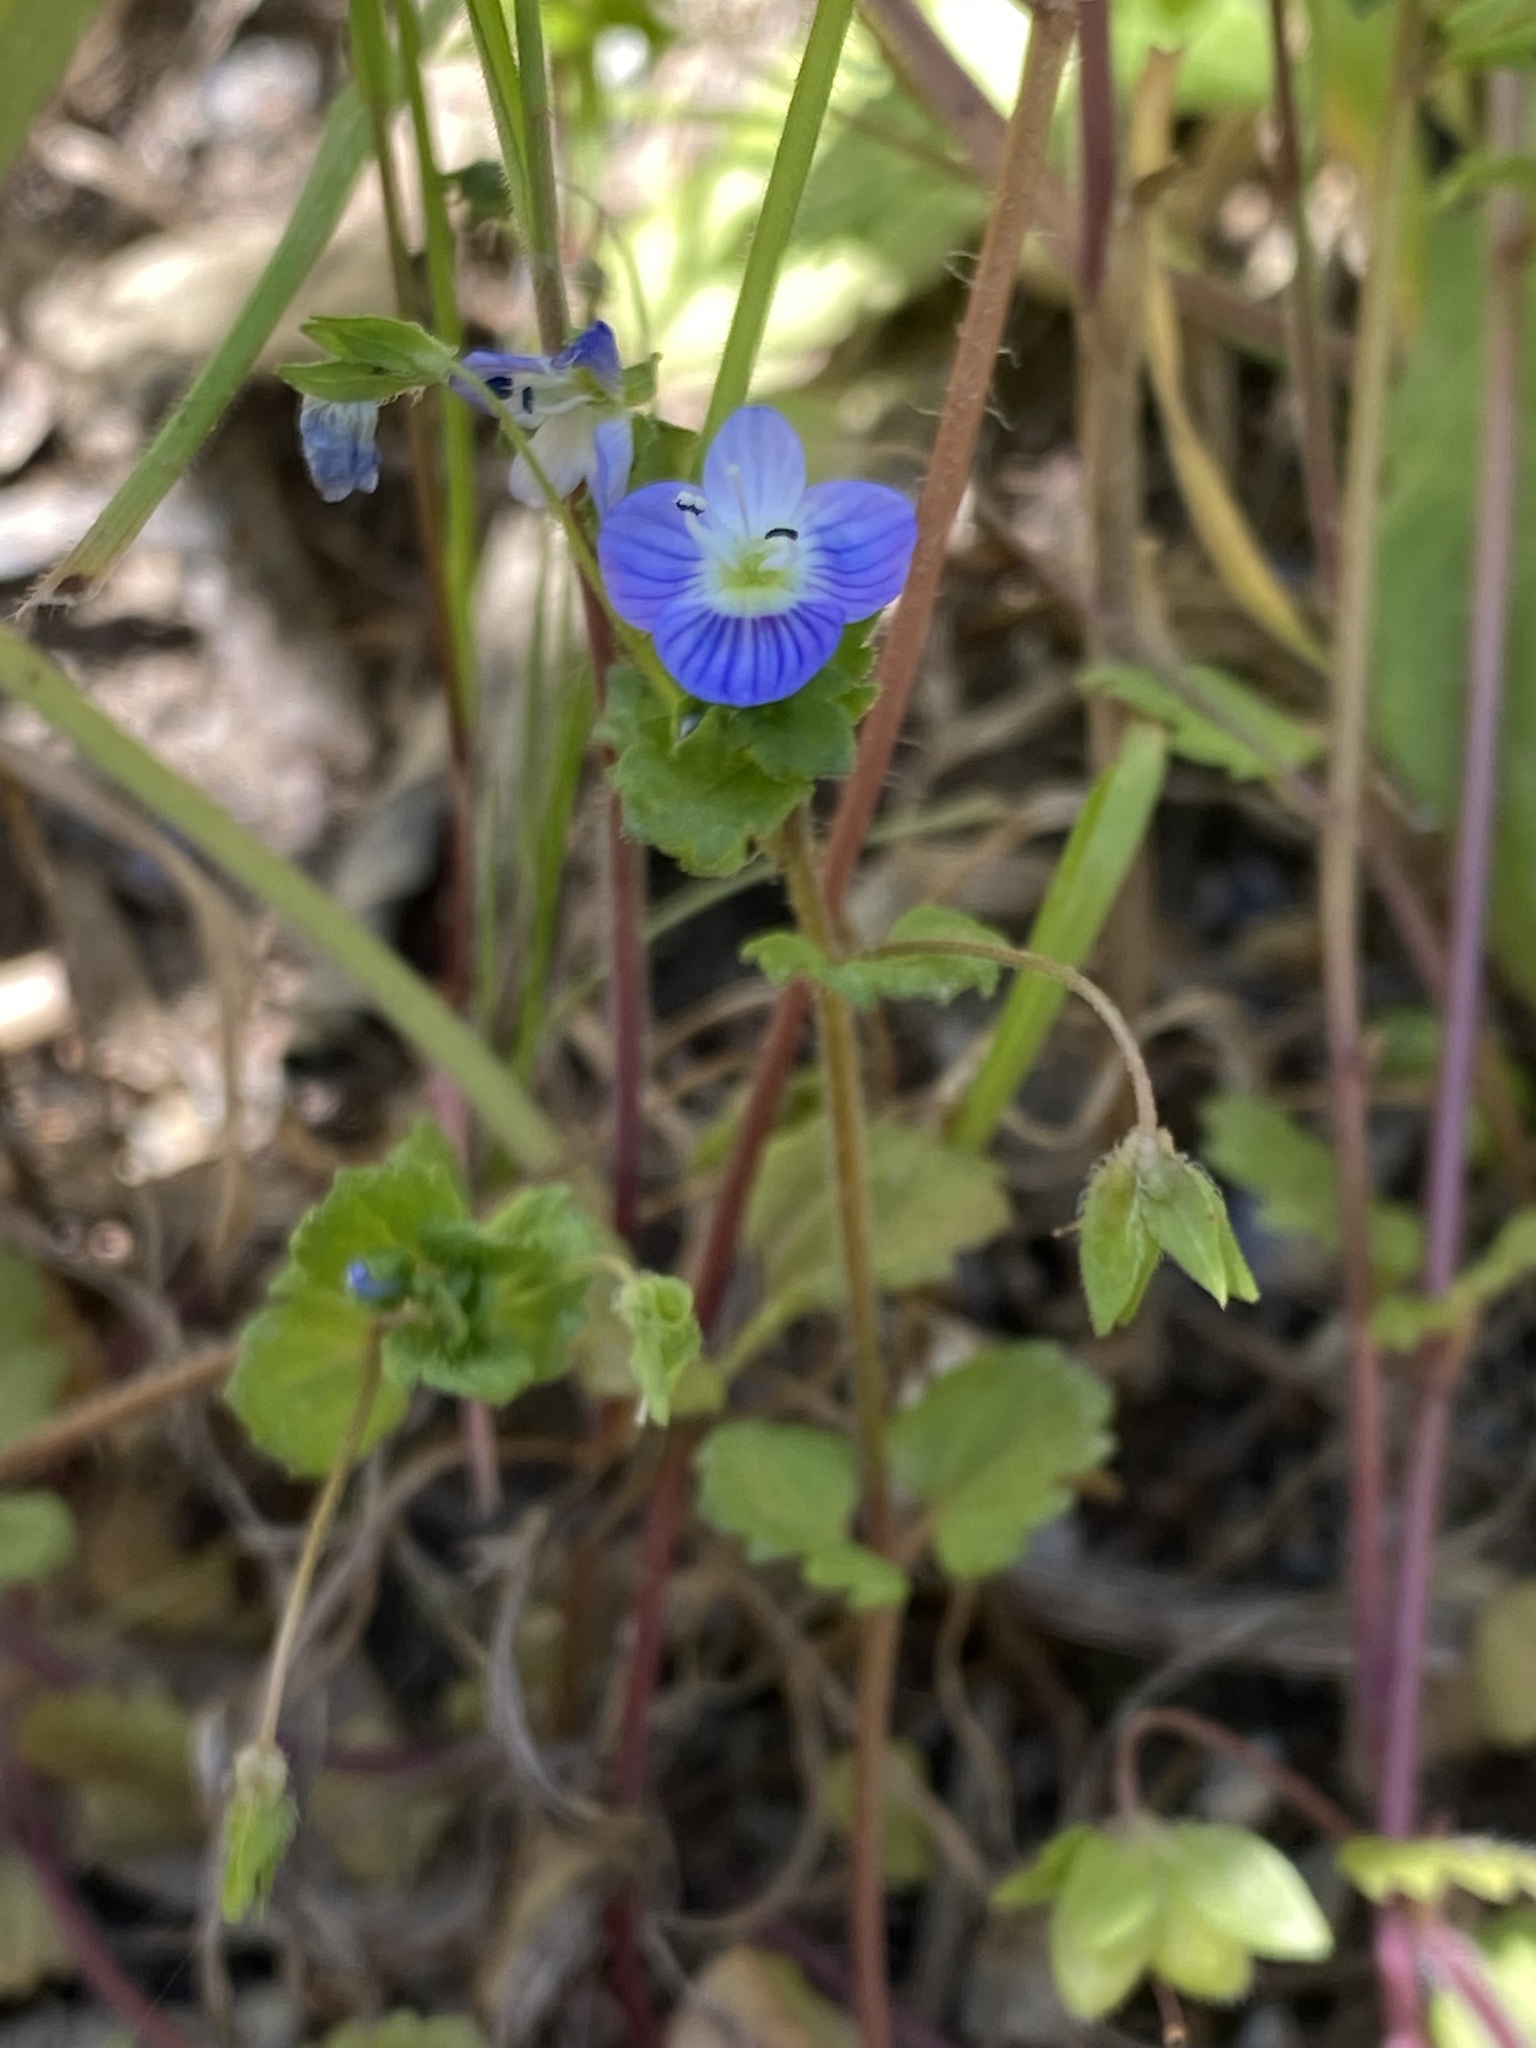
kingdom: Plantae
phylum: Tracheophyta
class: Magnoliopsida
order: Lamiales
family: Plantaginaceae
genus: Veronica
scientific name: Veronica persica
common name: Common field-speedwell
